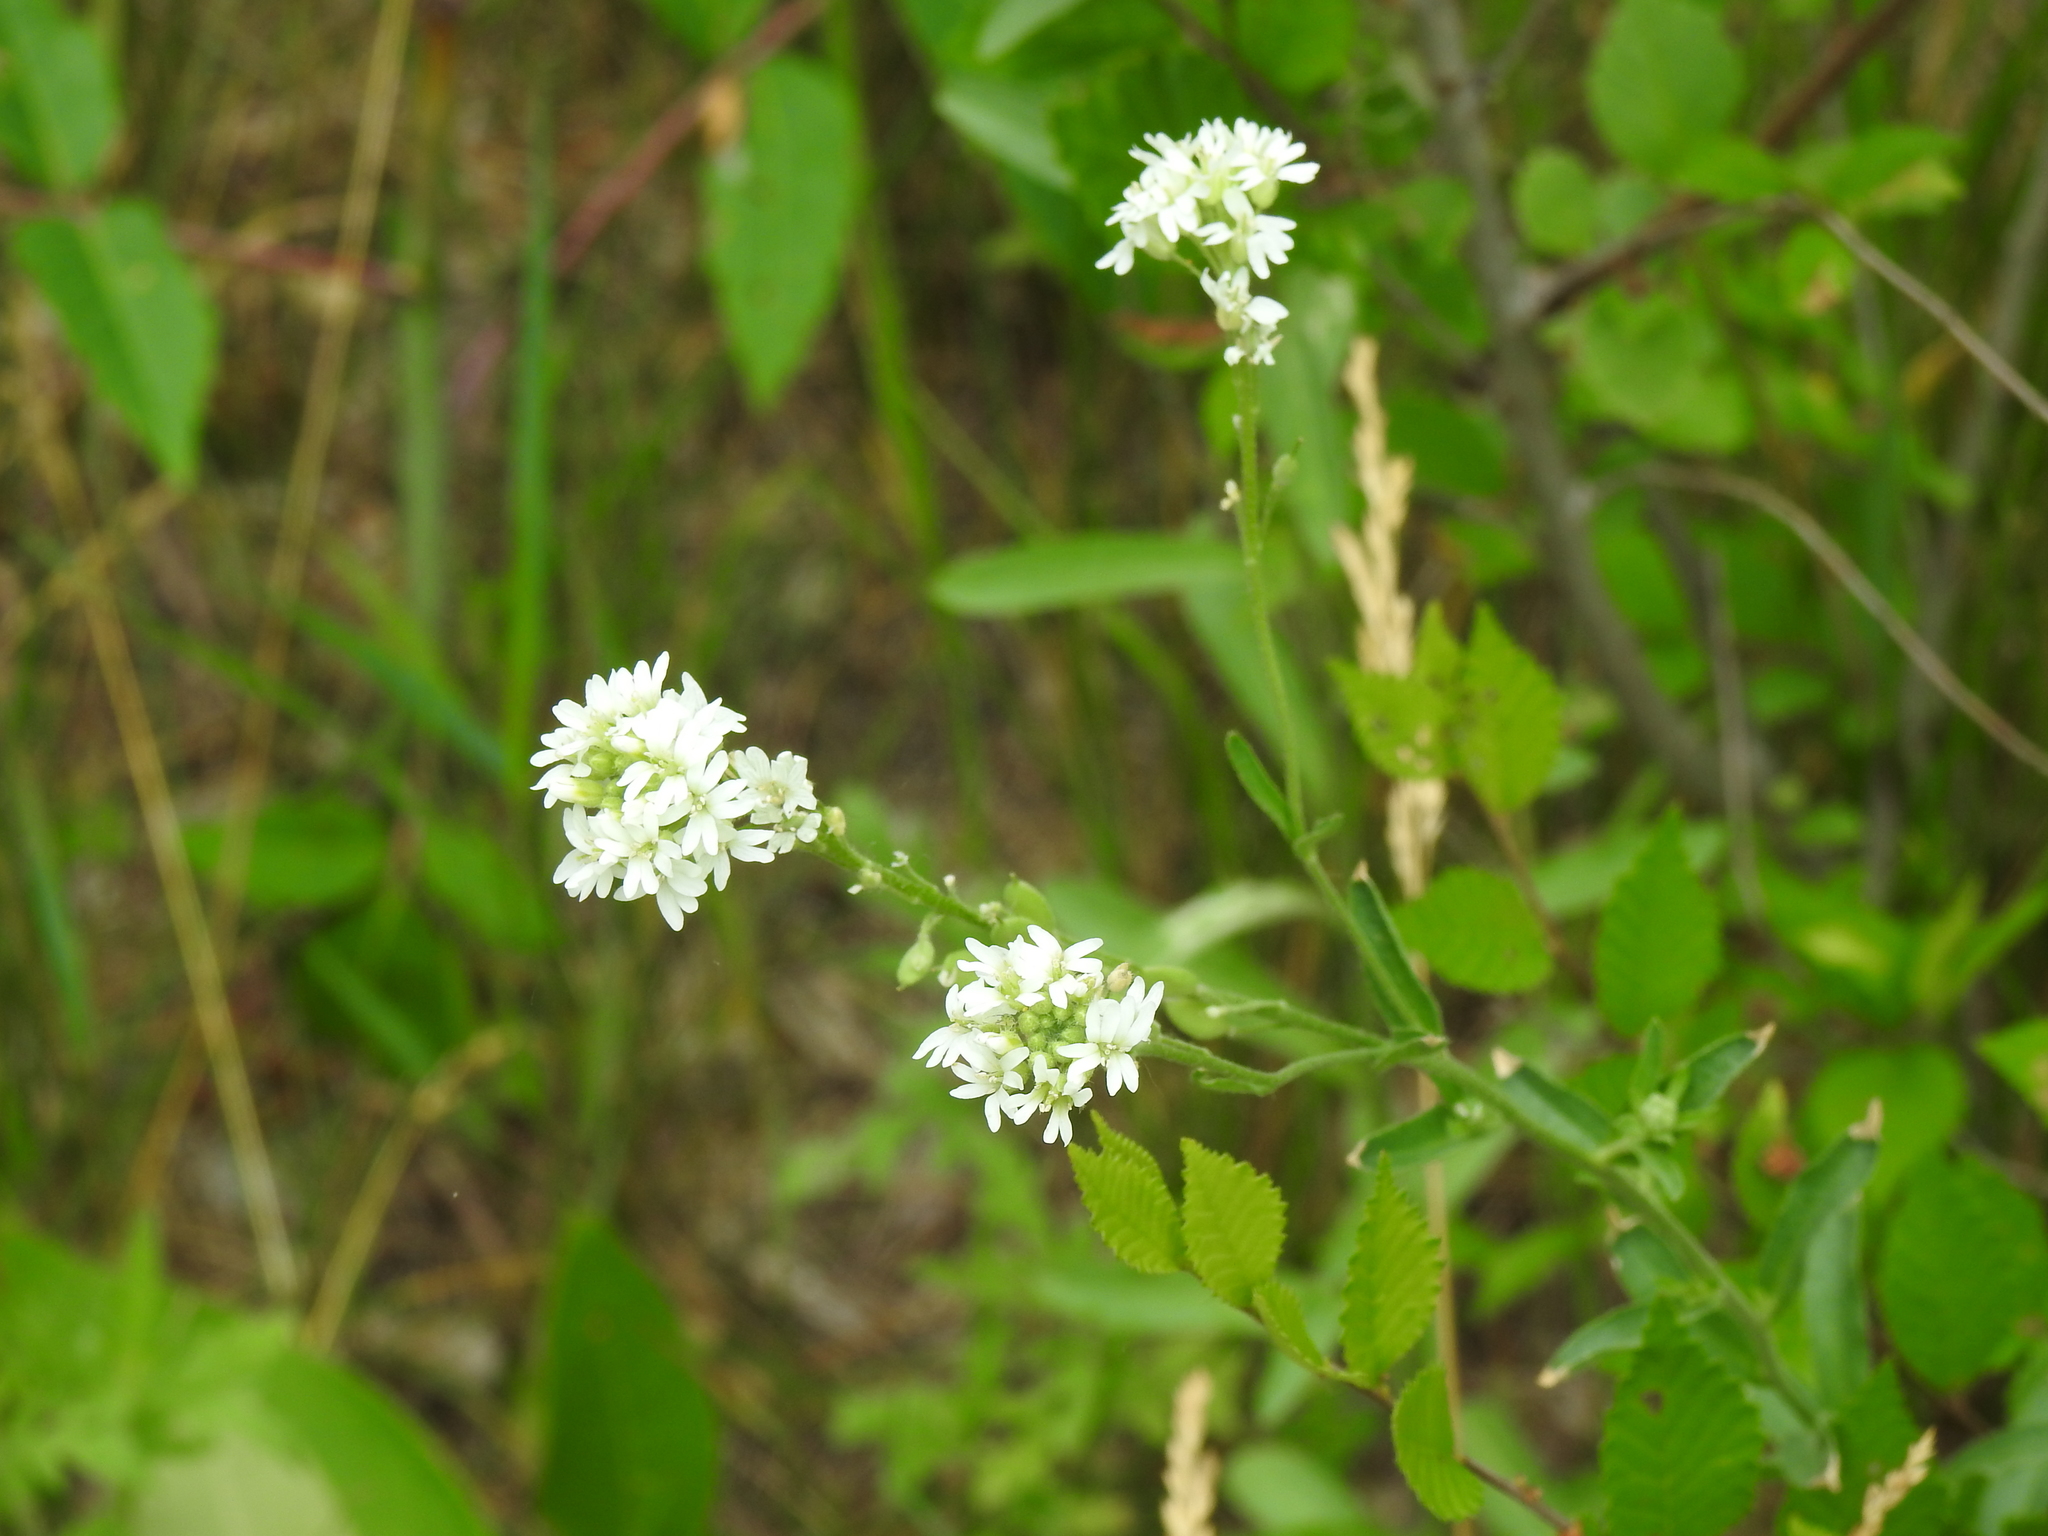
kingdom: Plantae
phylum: Tracheophyta
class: Magnoliopsida
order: Brassicales
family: Brassicaceae
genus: Berteroa
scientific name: Berteroa incana
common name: Hoary alison
